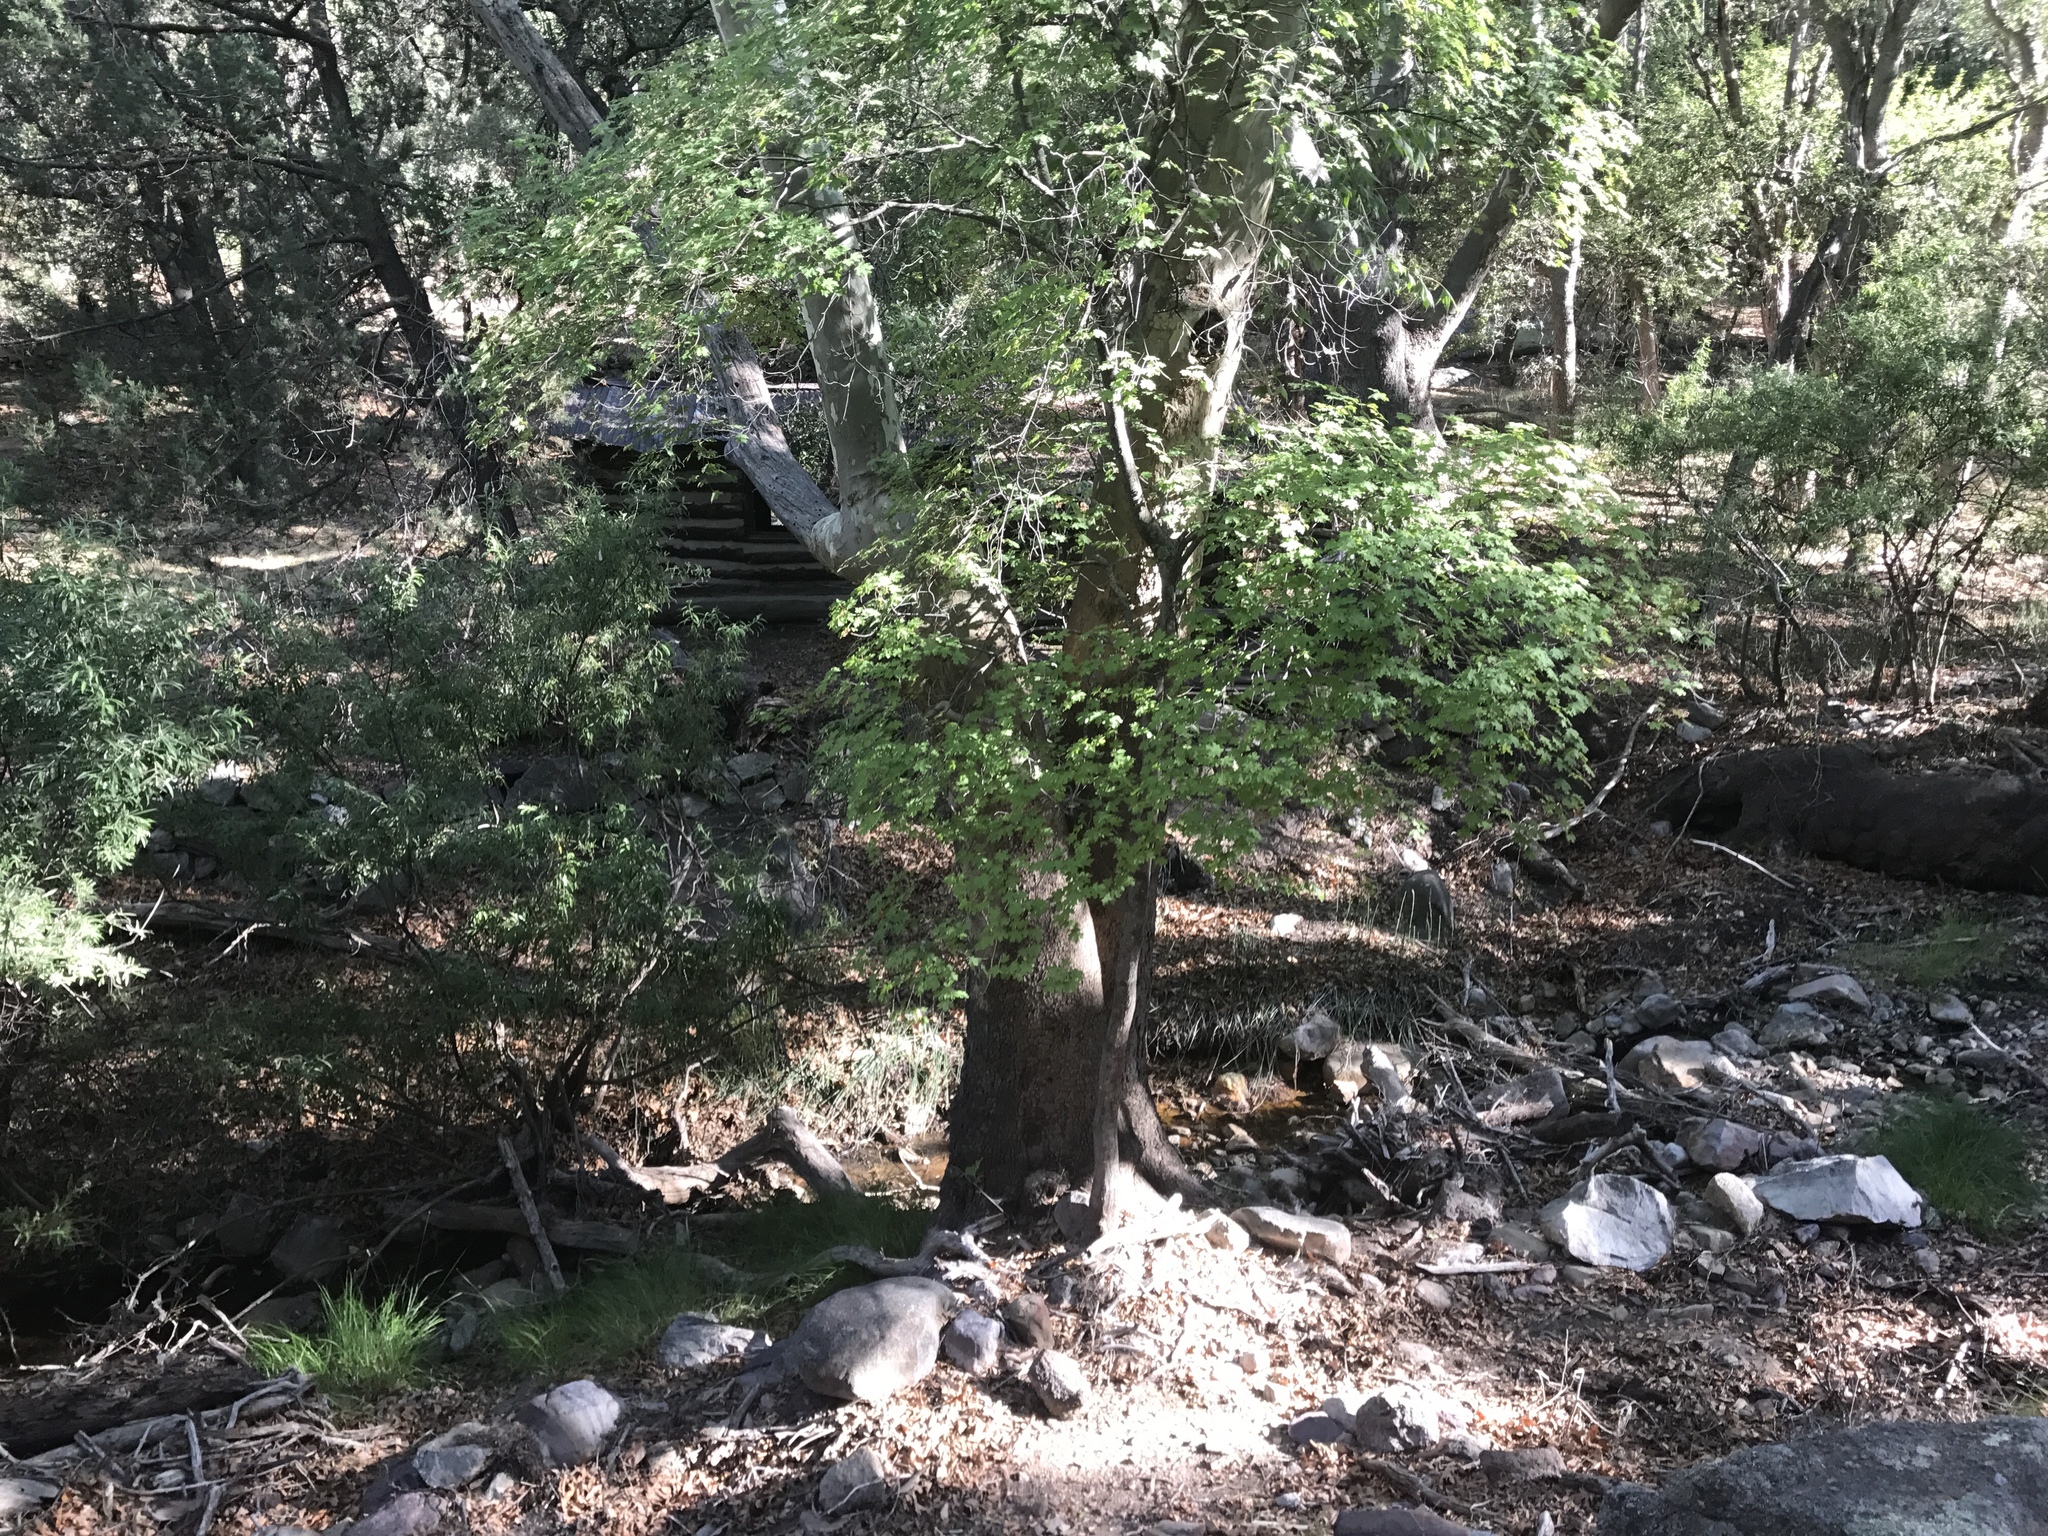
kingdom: Plantae
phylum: Tracheophyta
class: Magnoliopsida
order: Proteales
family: Platanaceae
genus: Platanus
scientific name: Platanus wrightii
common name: Arizona sycamore
